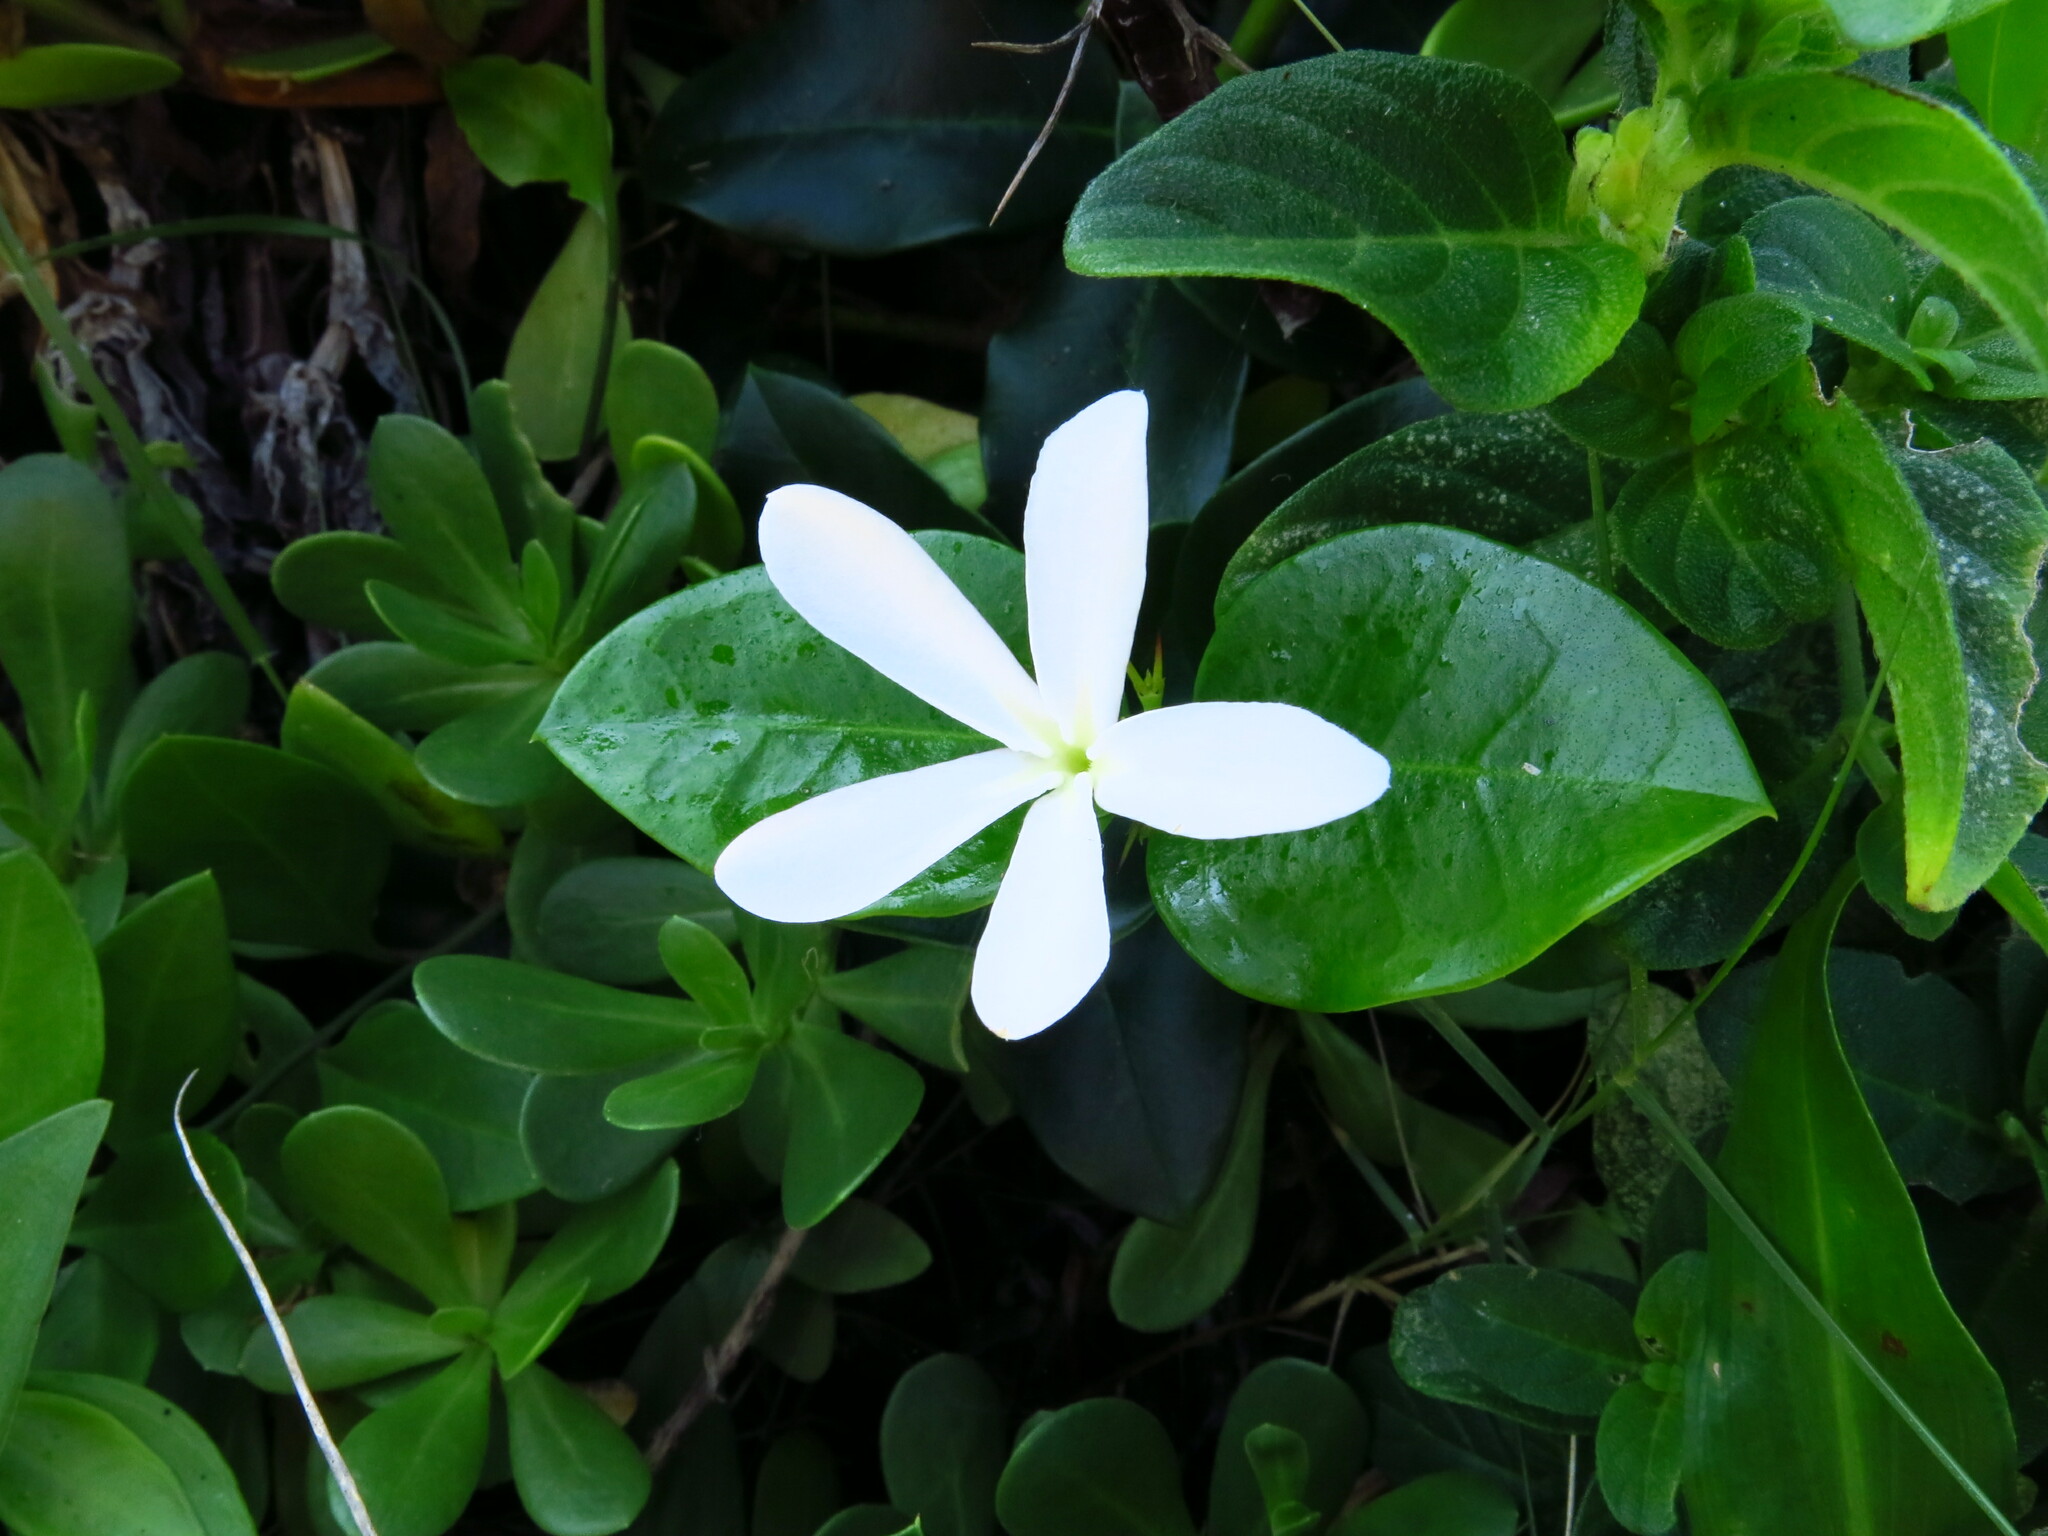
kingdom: Plantae
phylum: Tracheophyta
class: Magnoliopsida
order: Gentianales
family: Apocynaceae
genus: Carissa
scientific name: Carissa macrocarpa
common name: Natal plum
